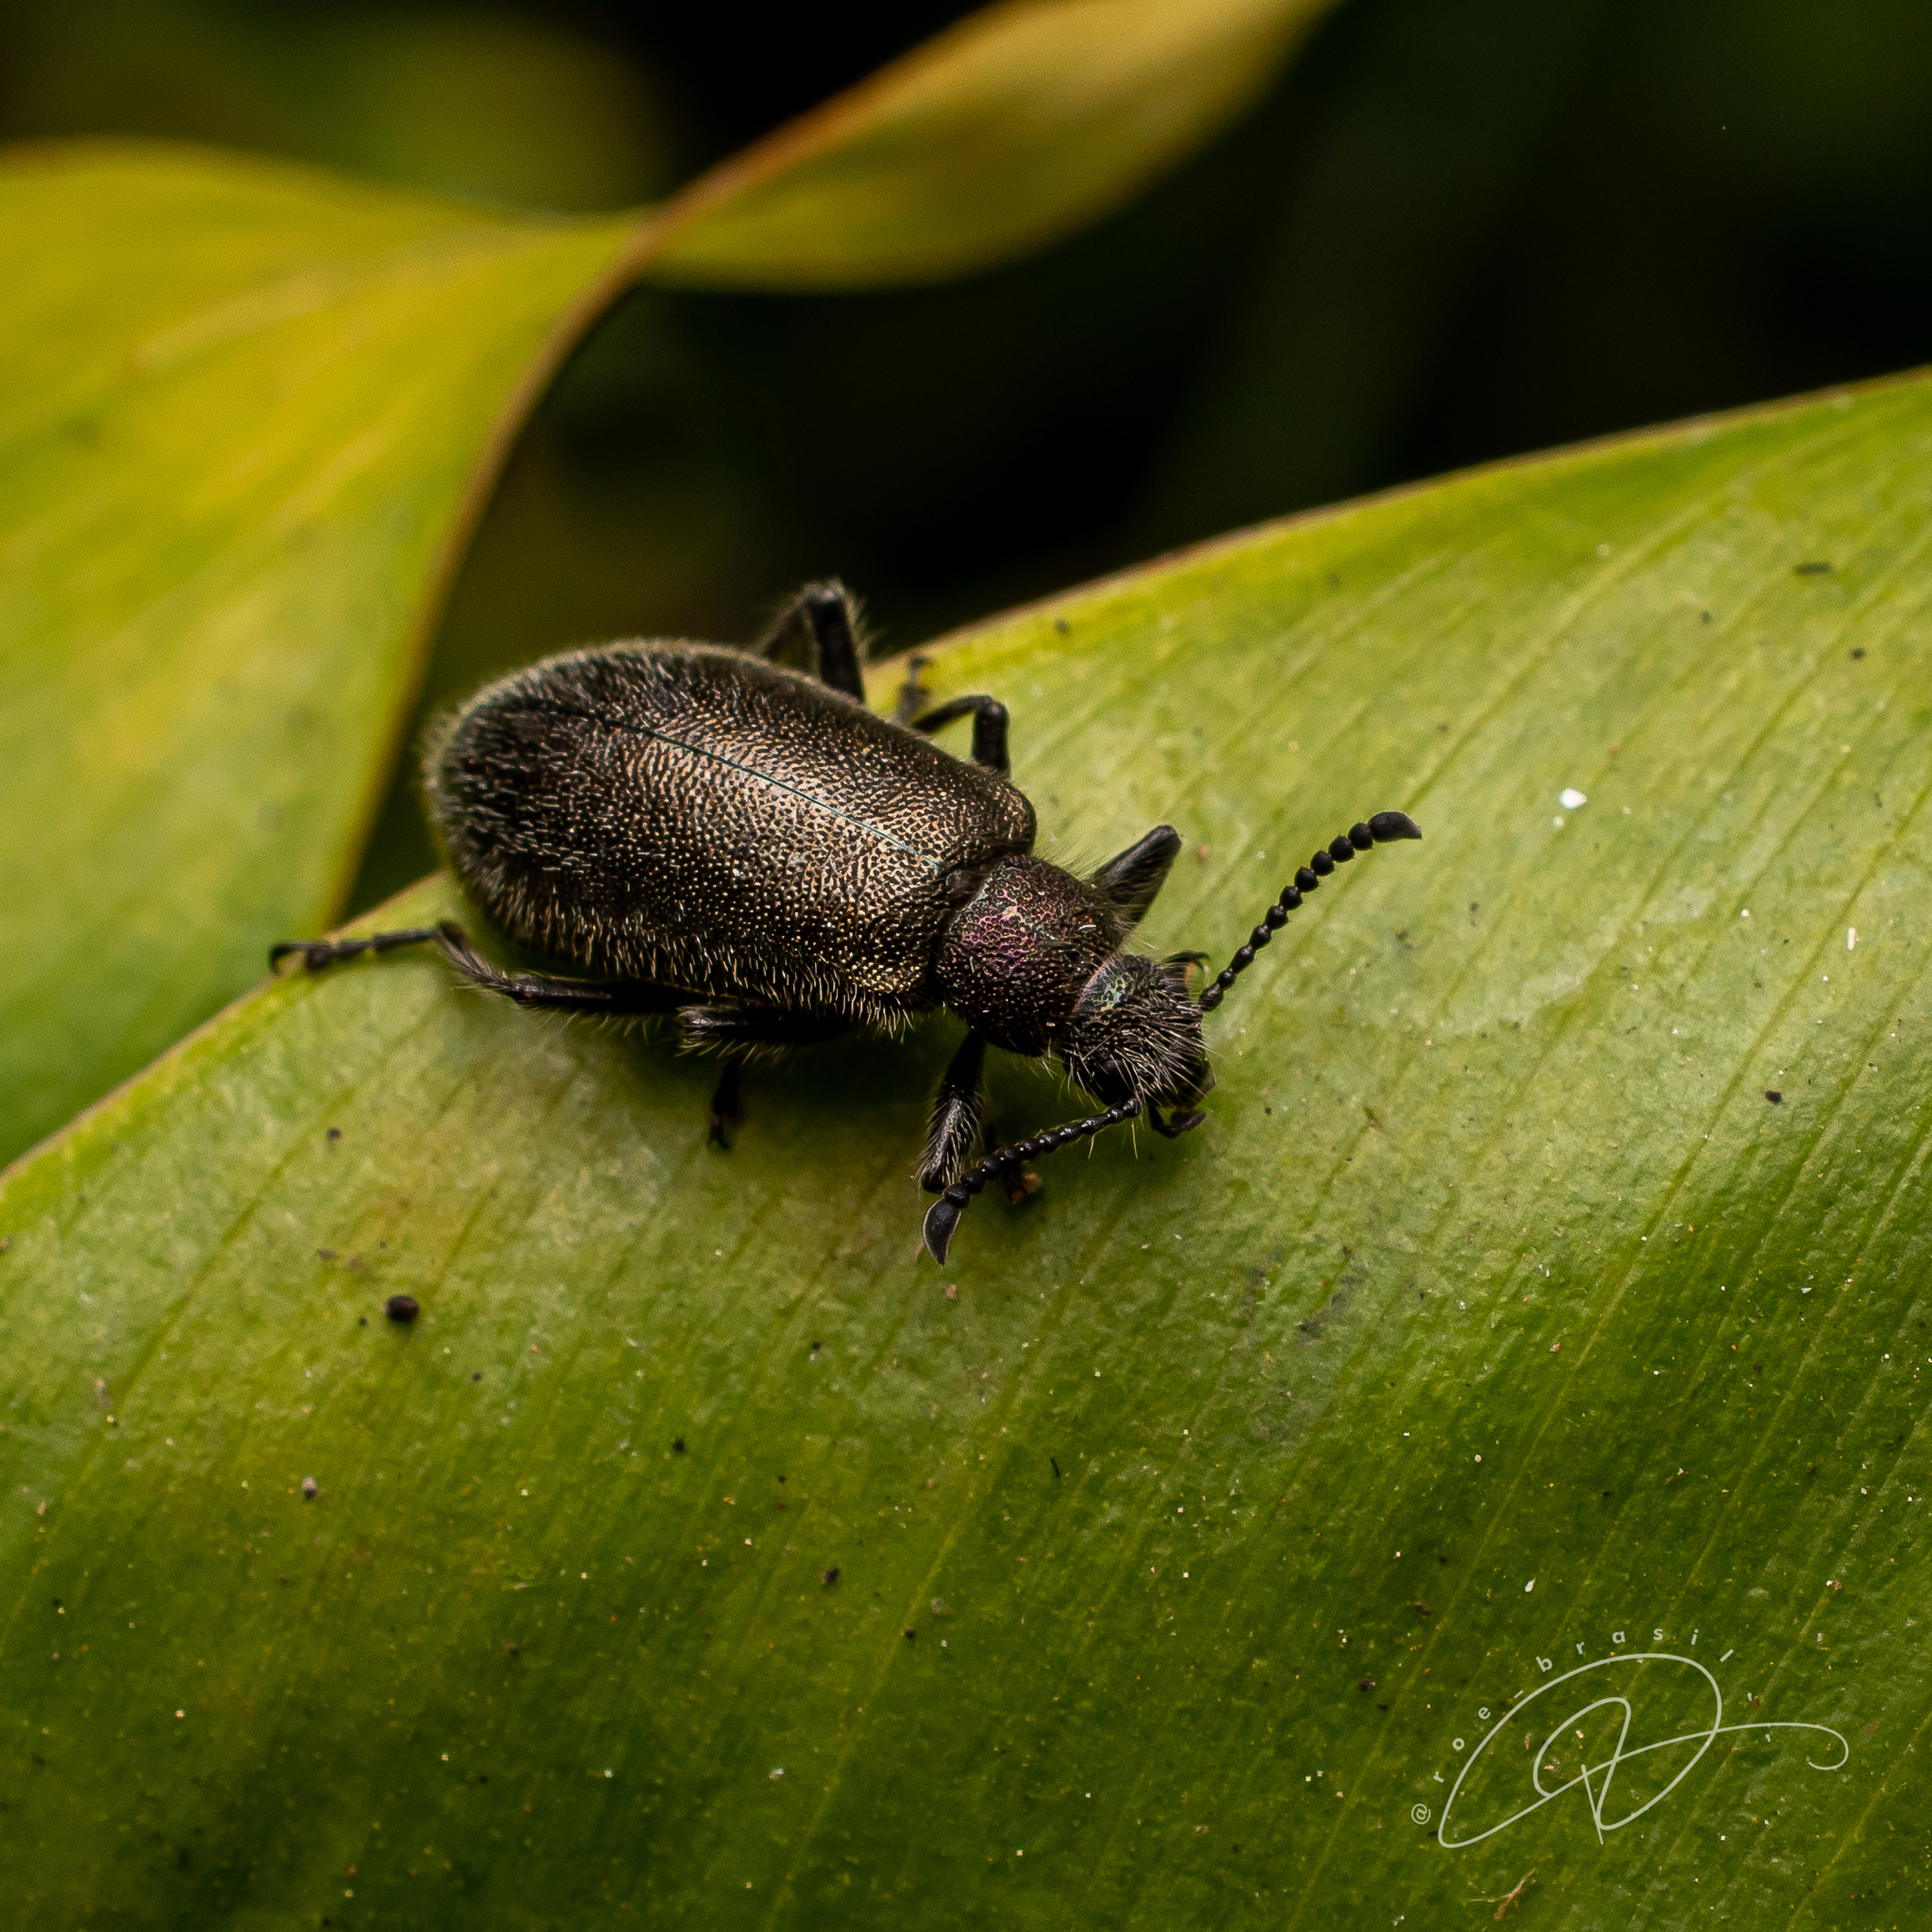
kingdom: Animalia
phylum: Arthropoda
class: Insecta
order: Coleoptera
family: Tenebrionidae
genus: Lagria
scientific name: Lagria villosa
